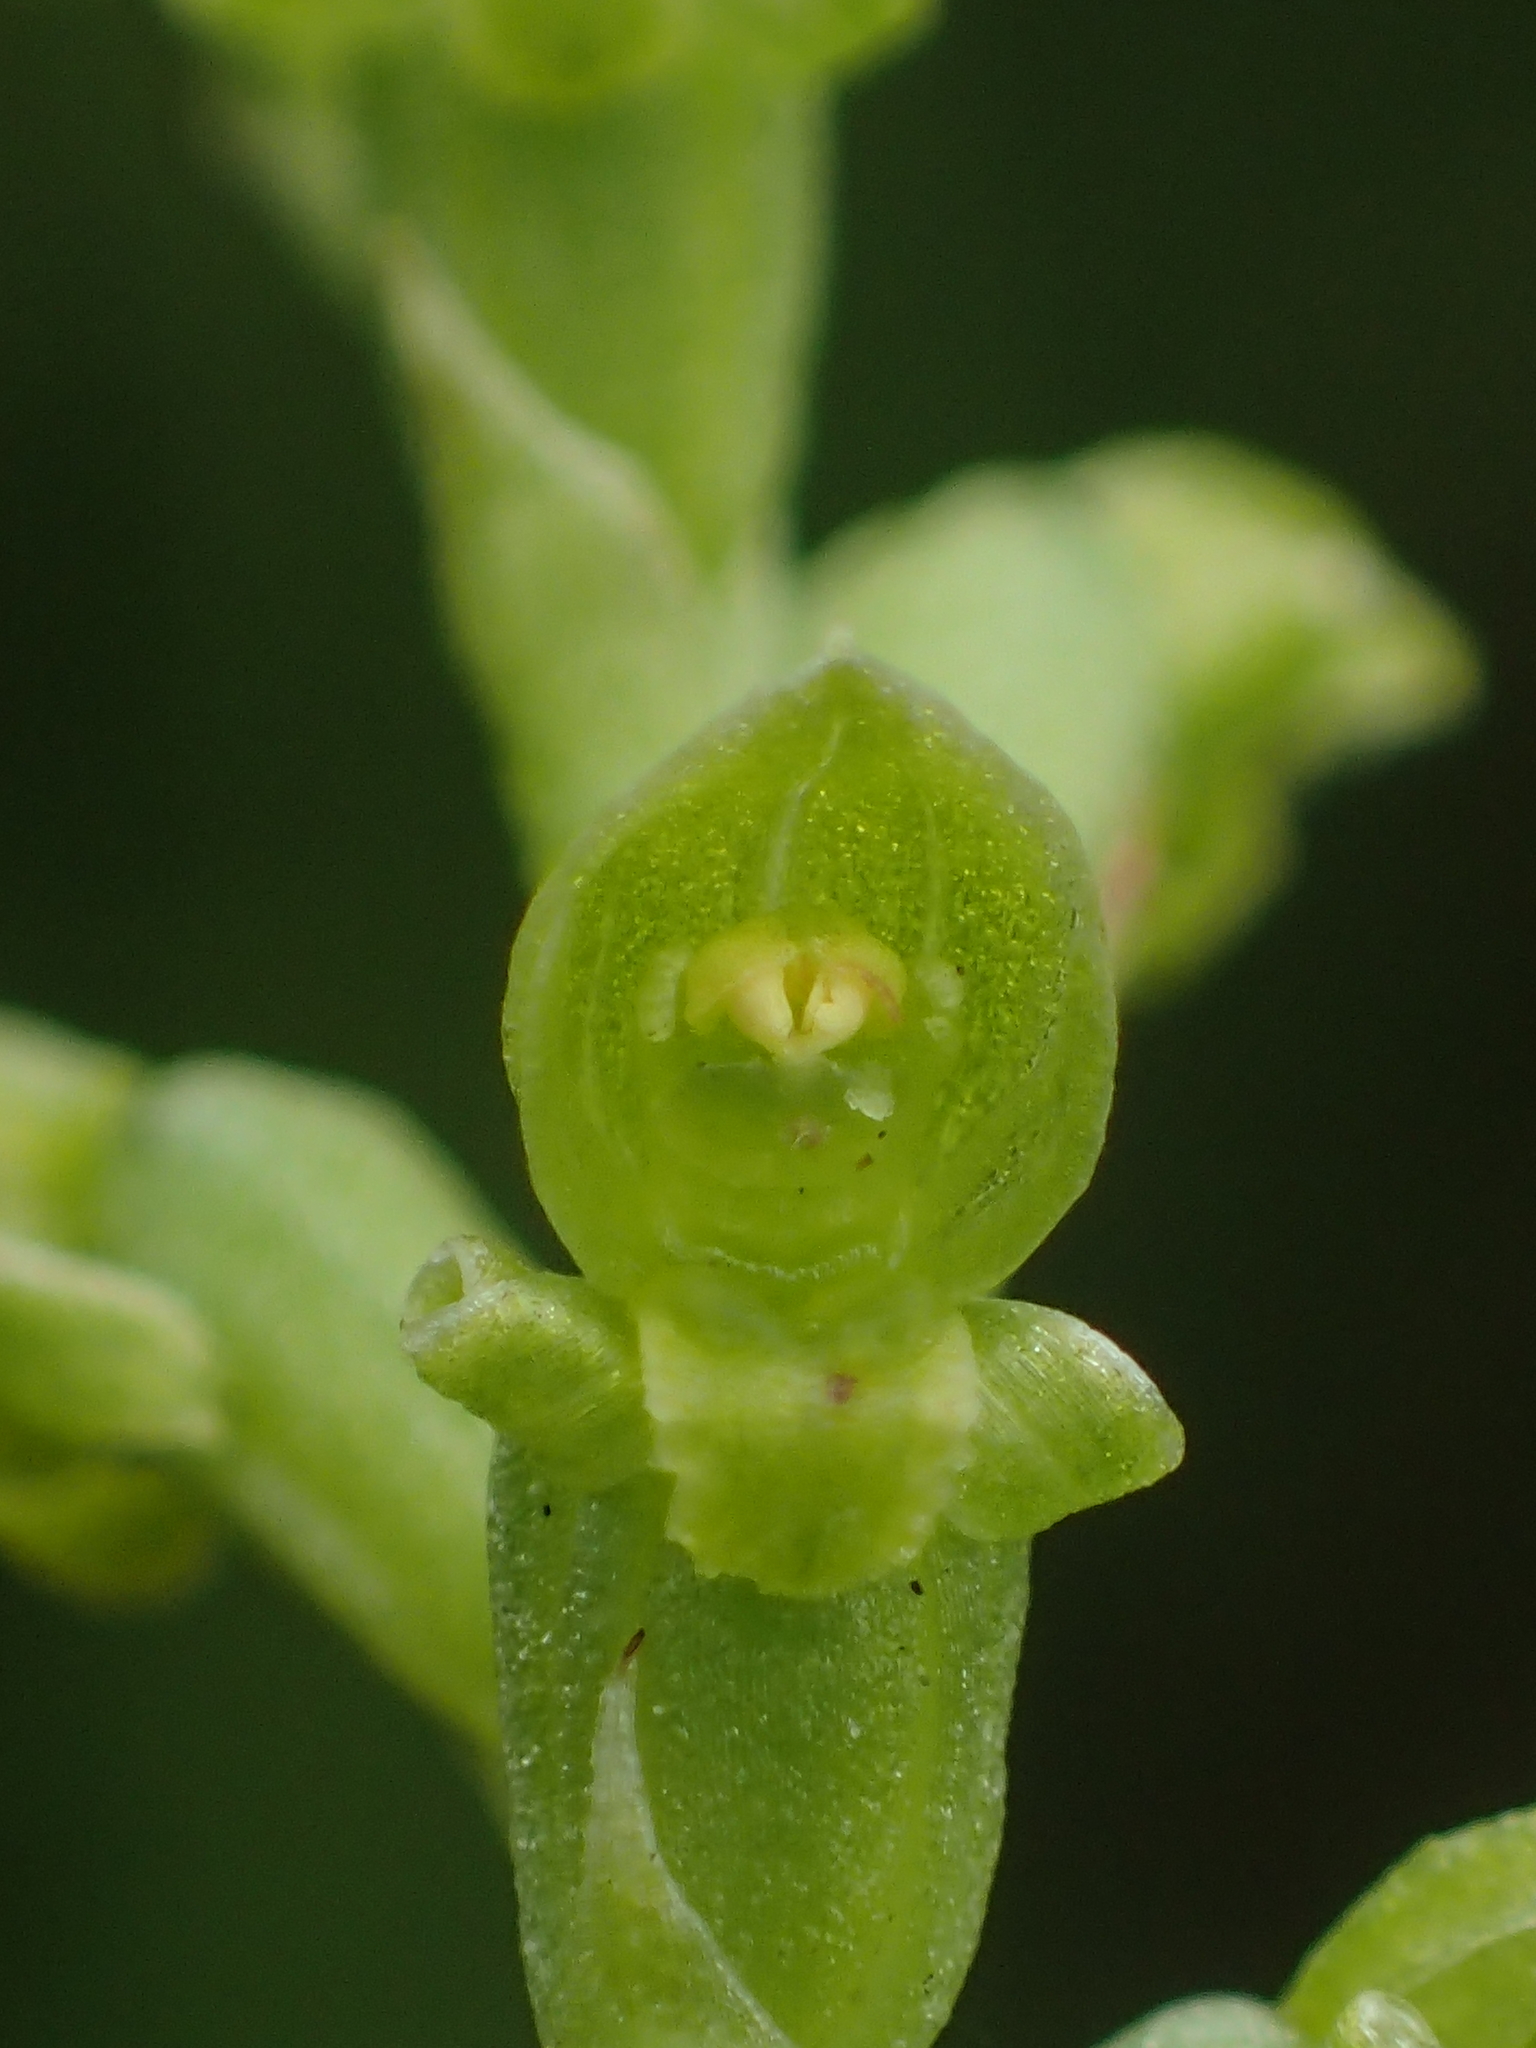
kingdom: Plantae
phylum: Tracheophyta
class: Liliopsida
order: Asparagales
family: Orchidaceae
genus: Microtis
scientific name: Microtis unifolia
